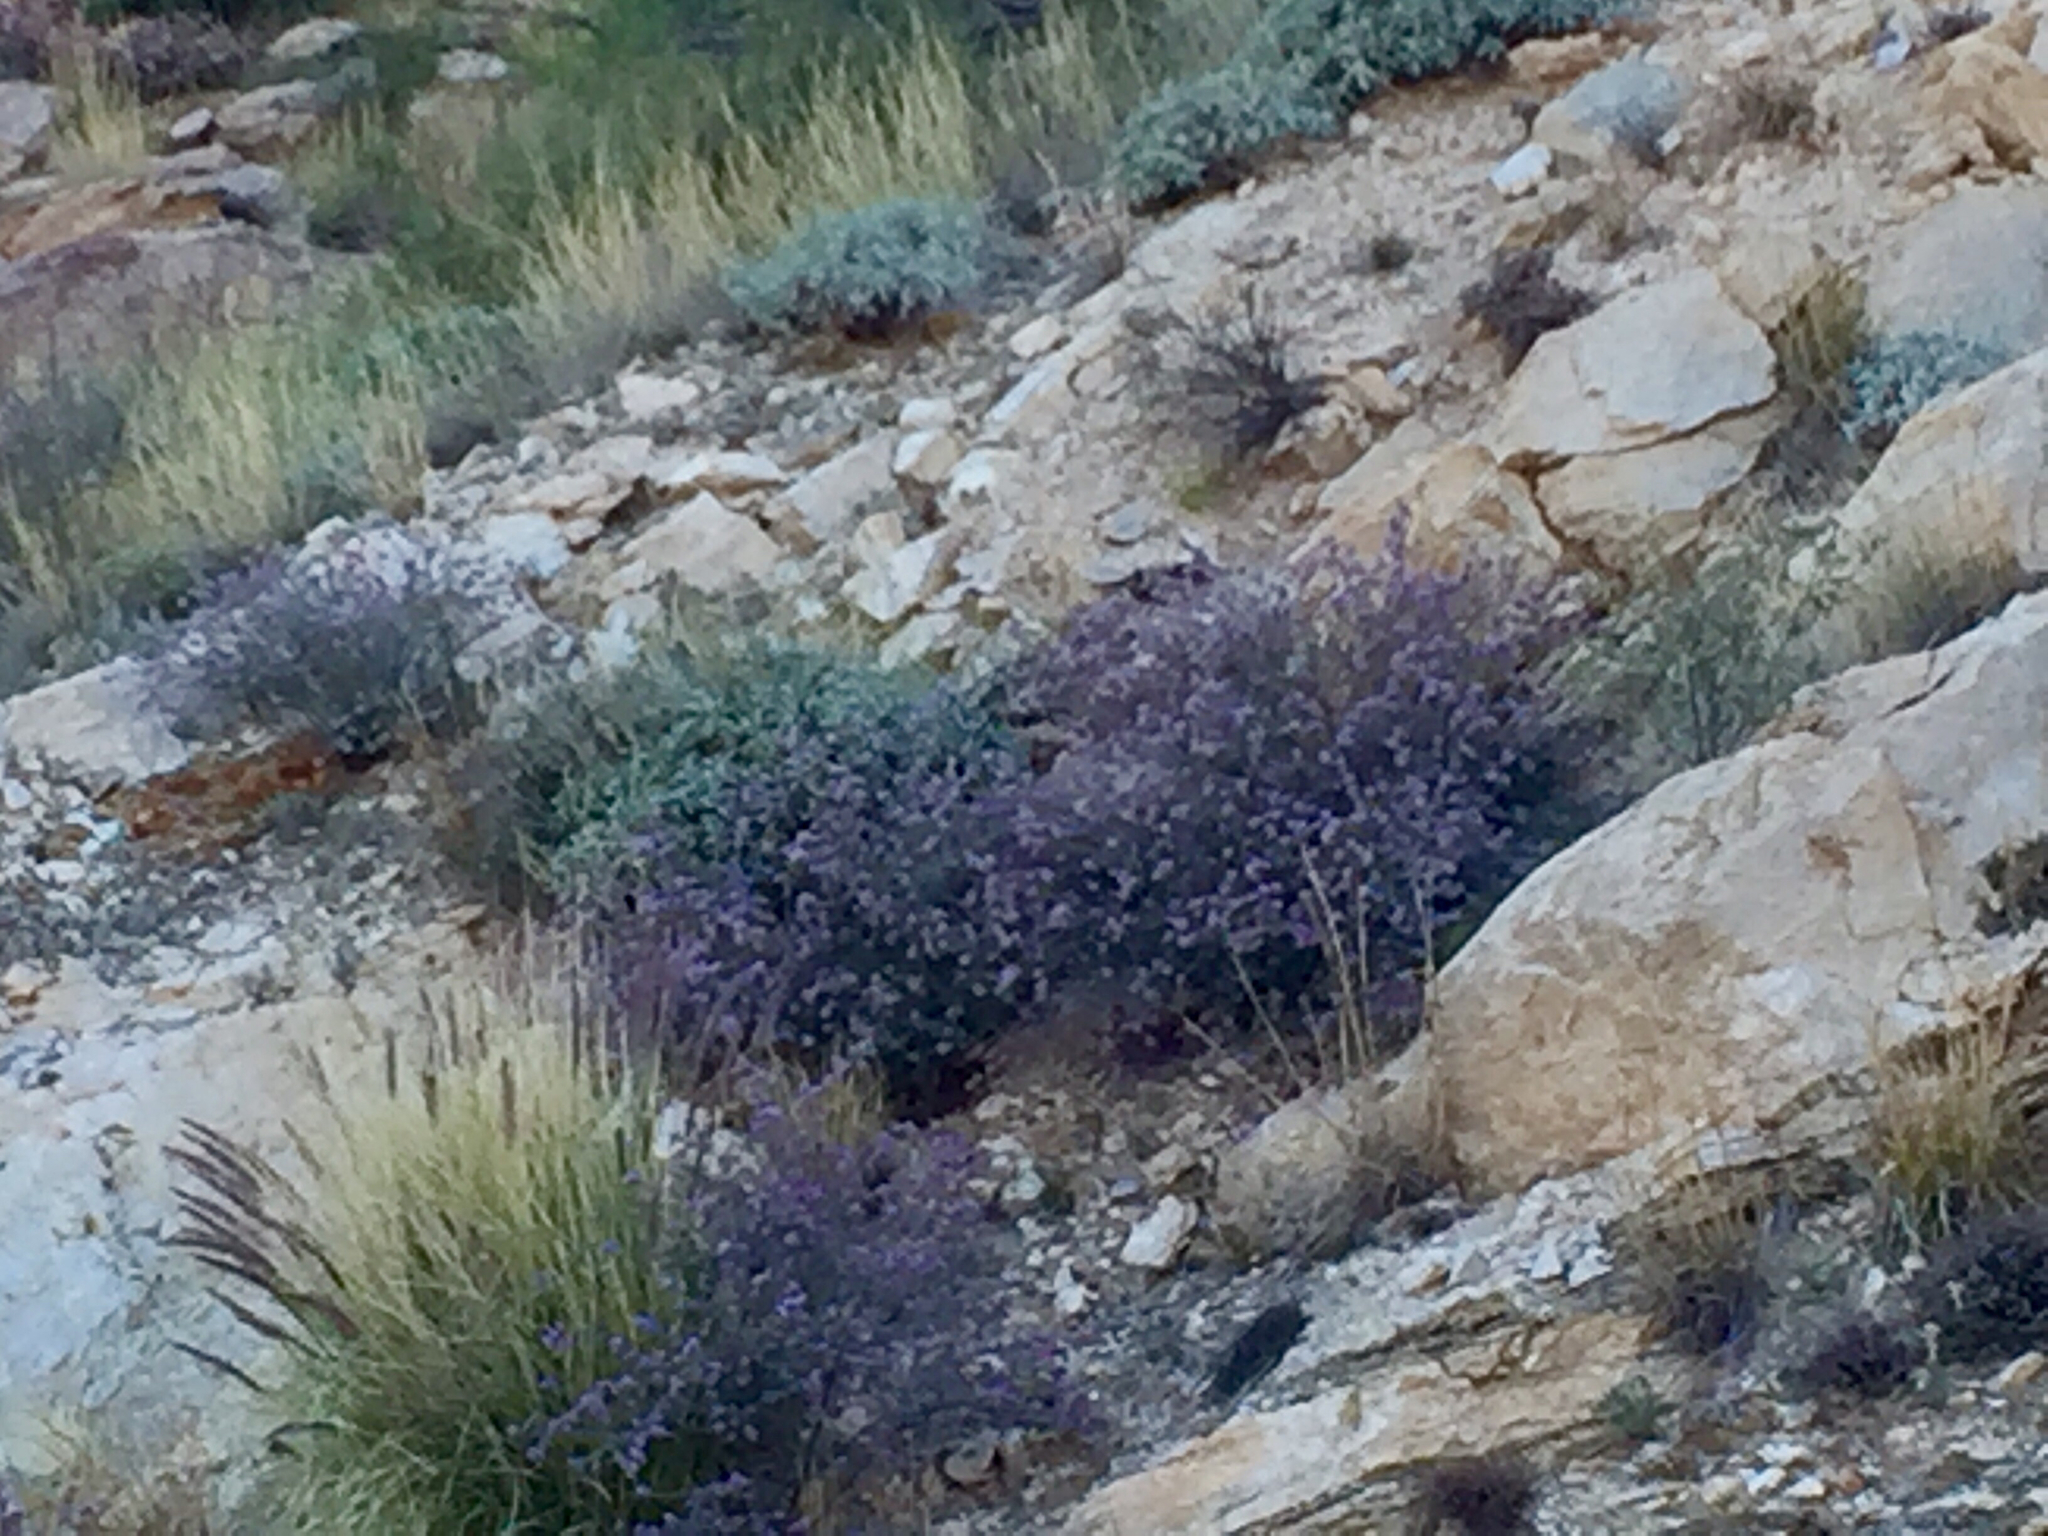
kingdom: Plantae
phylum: Tracheophyta
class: Magnoliopsida
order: Fabales
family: Fabaceae
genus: Calliandra
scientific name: Calliandra eriophylla
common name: Fairy-duster
